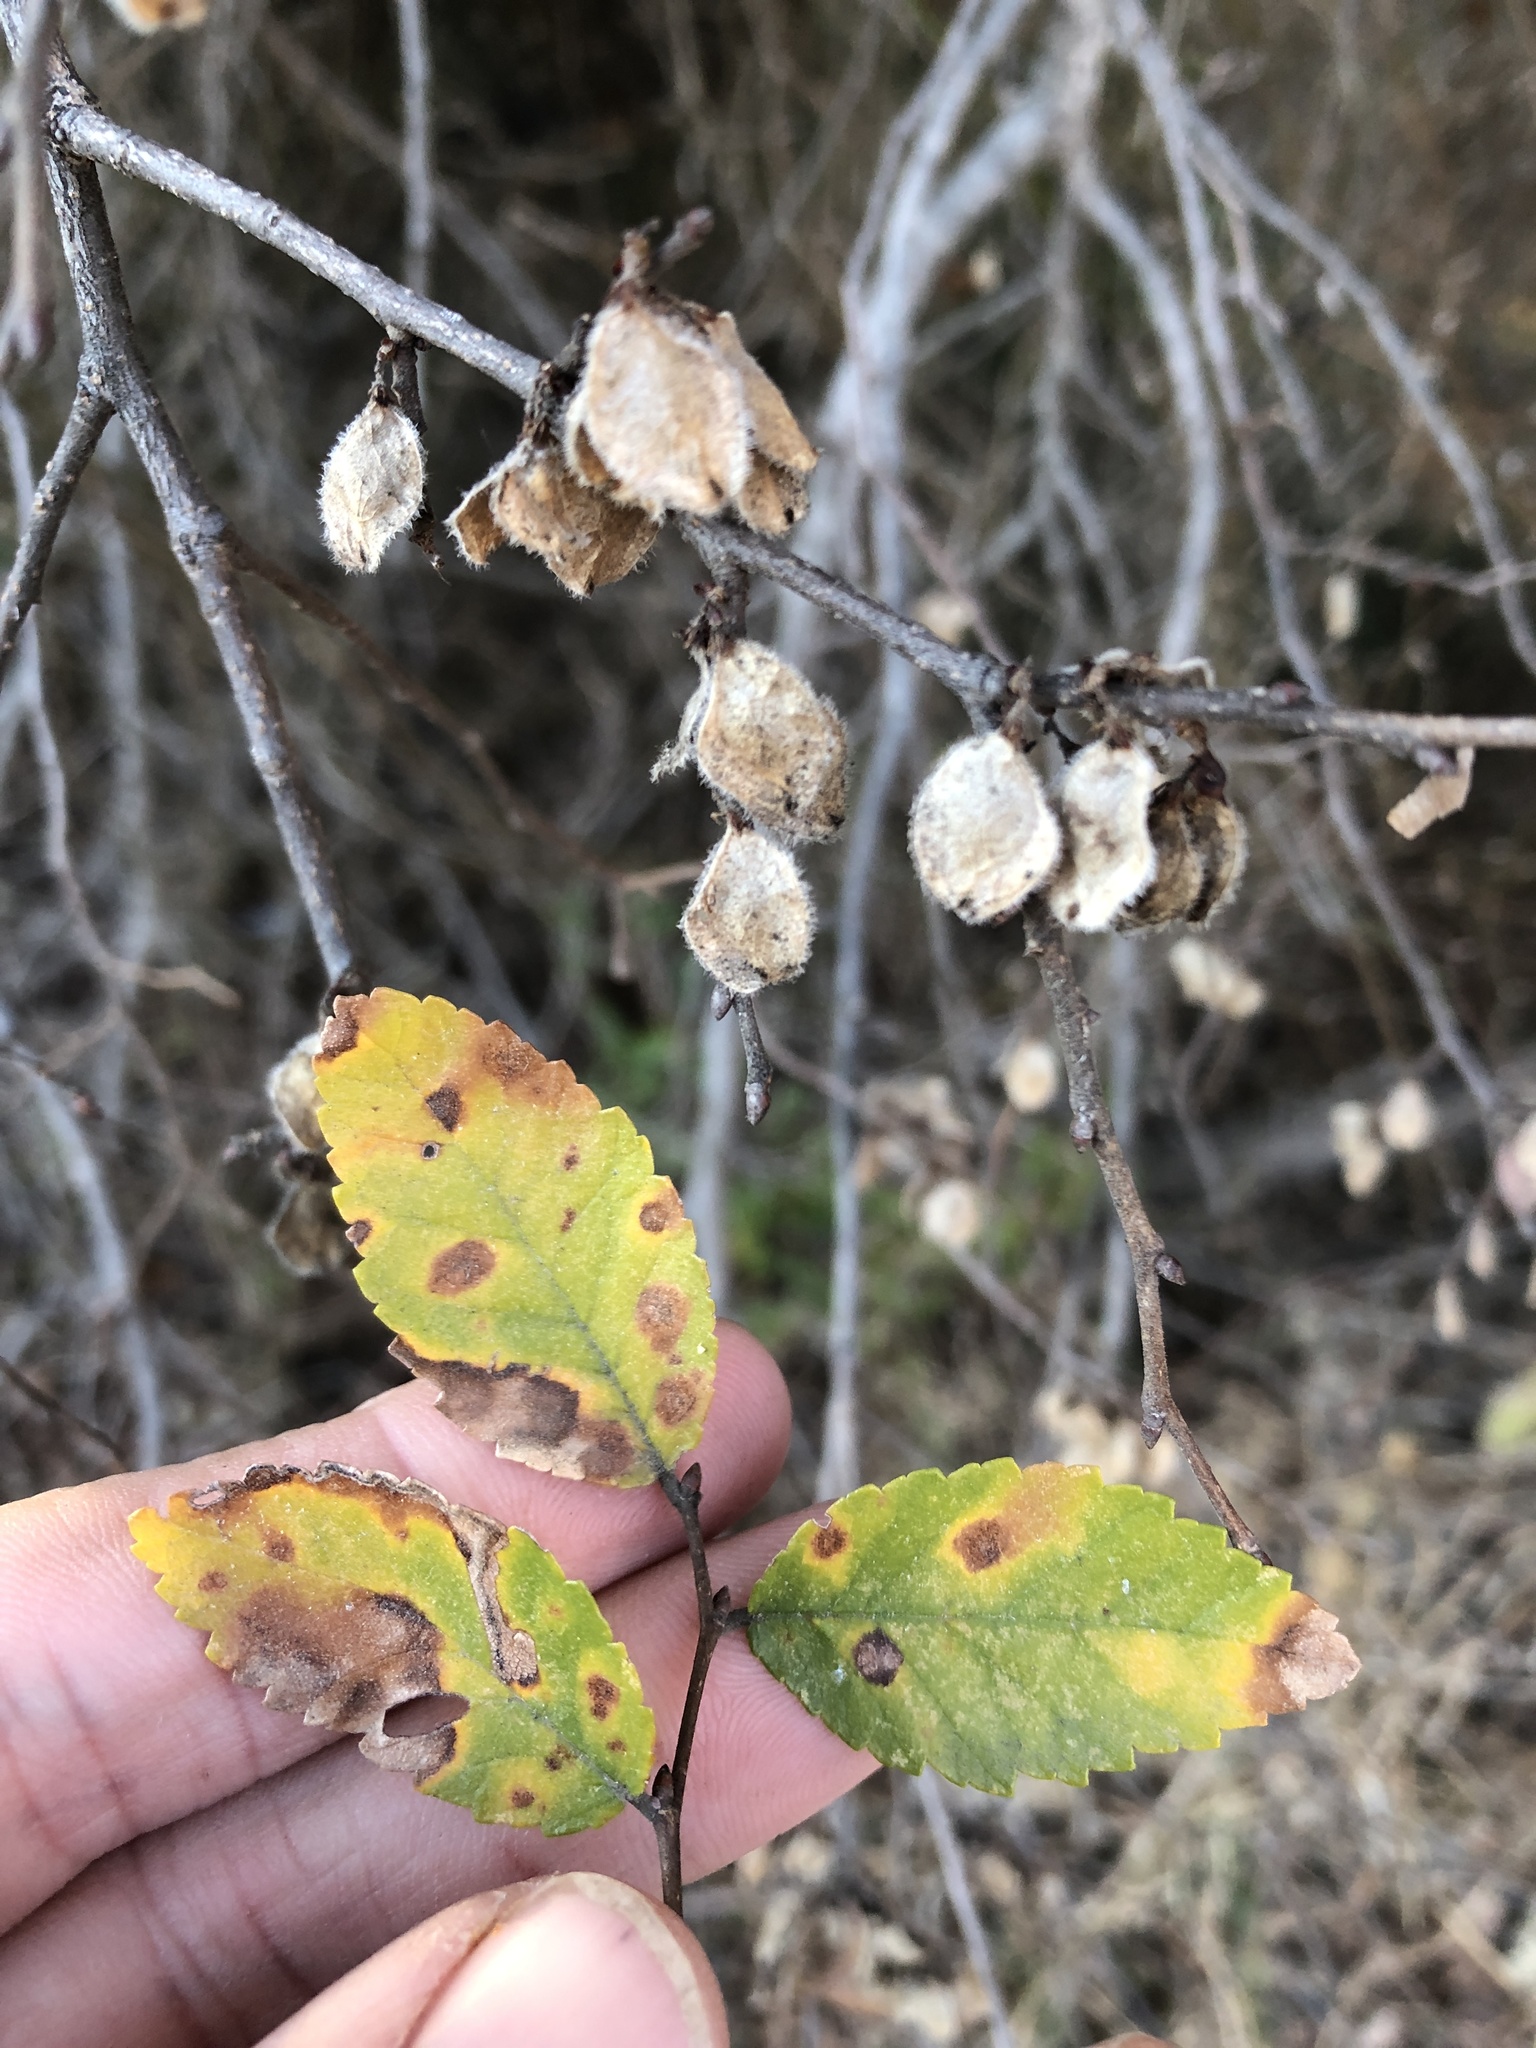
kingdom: Plantae
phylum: Tracheophyta
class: Magnoliopsida
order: Rosales
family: Ulmaceae
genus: Ulmus
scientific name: Ulmus crassifolia
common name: Basket elm
